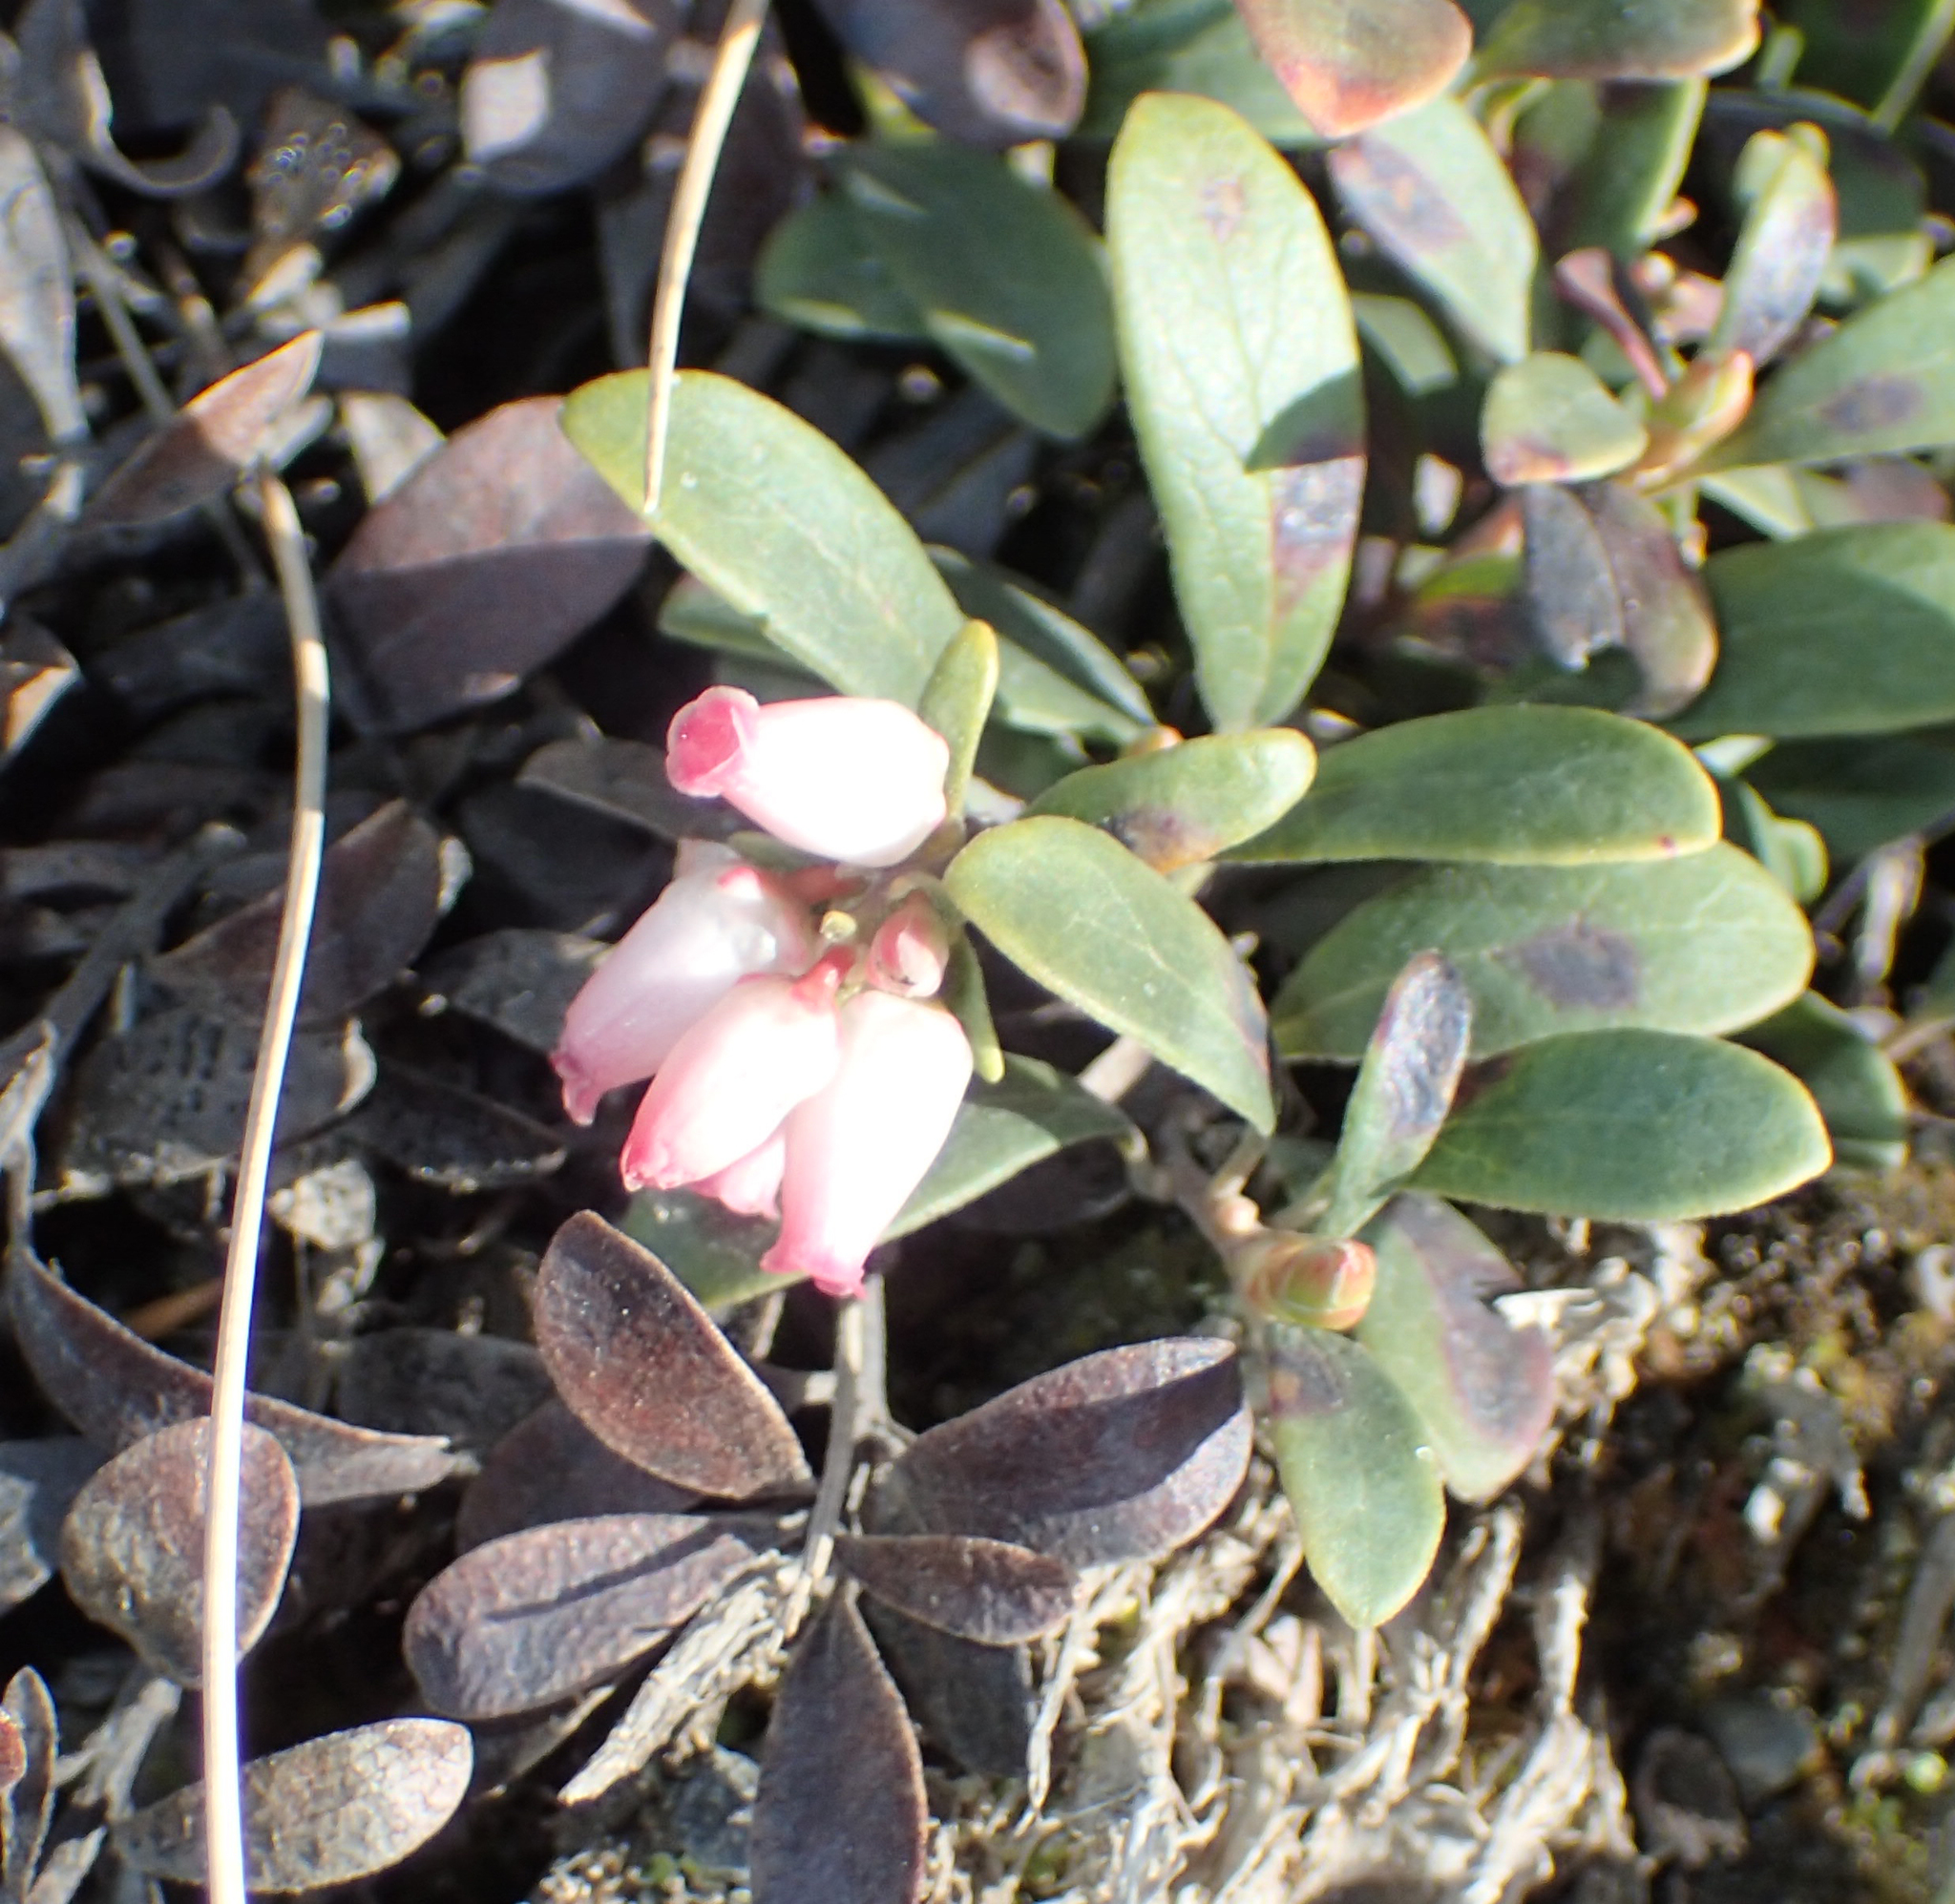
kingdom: Plantae
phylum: Tracheophyta
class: Magnoliopsida
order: Ericales
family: Ericaceae
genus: Arctostaphylos
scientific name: Arctostaphylos uva-ursi
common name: Bearberry
